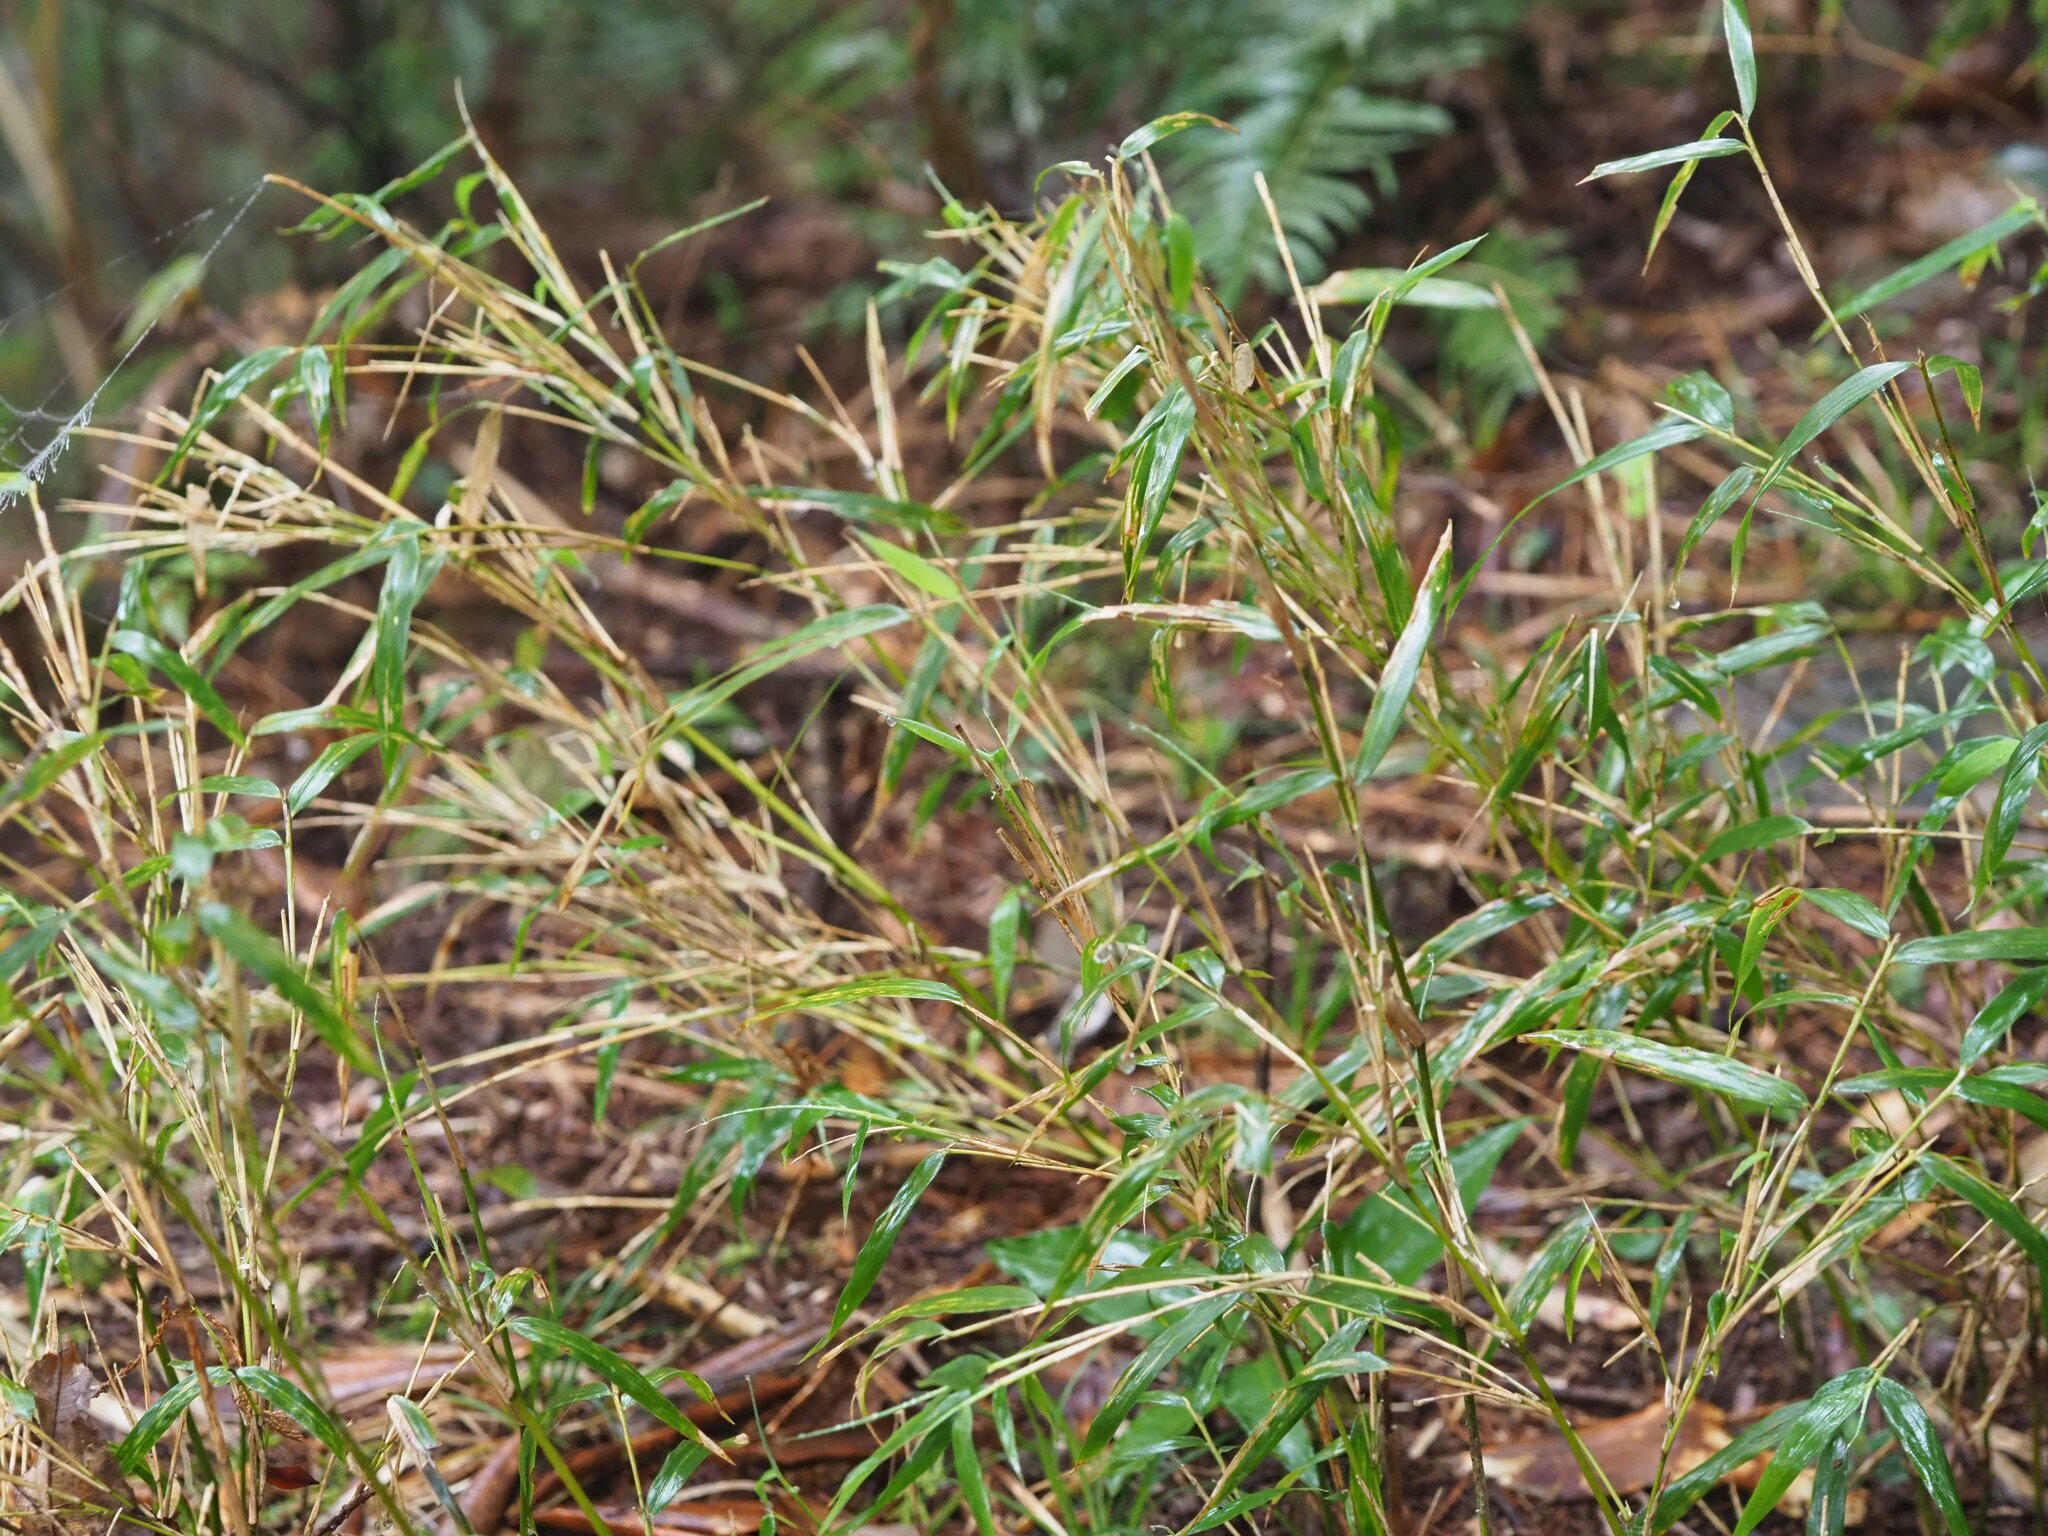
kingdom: Plantae
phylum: Tracheophyta
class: Liliopsida
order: Poales
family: Poaceae
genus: Yushania
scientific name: Yushania niitakayamensis
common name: Yushan cane
